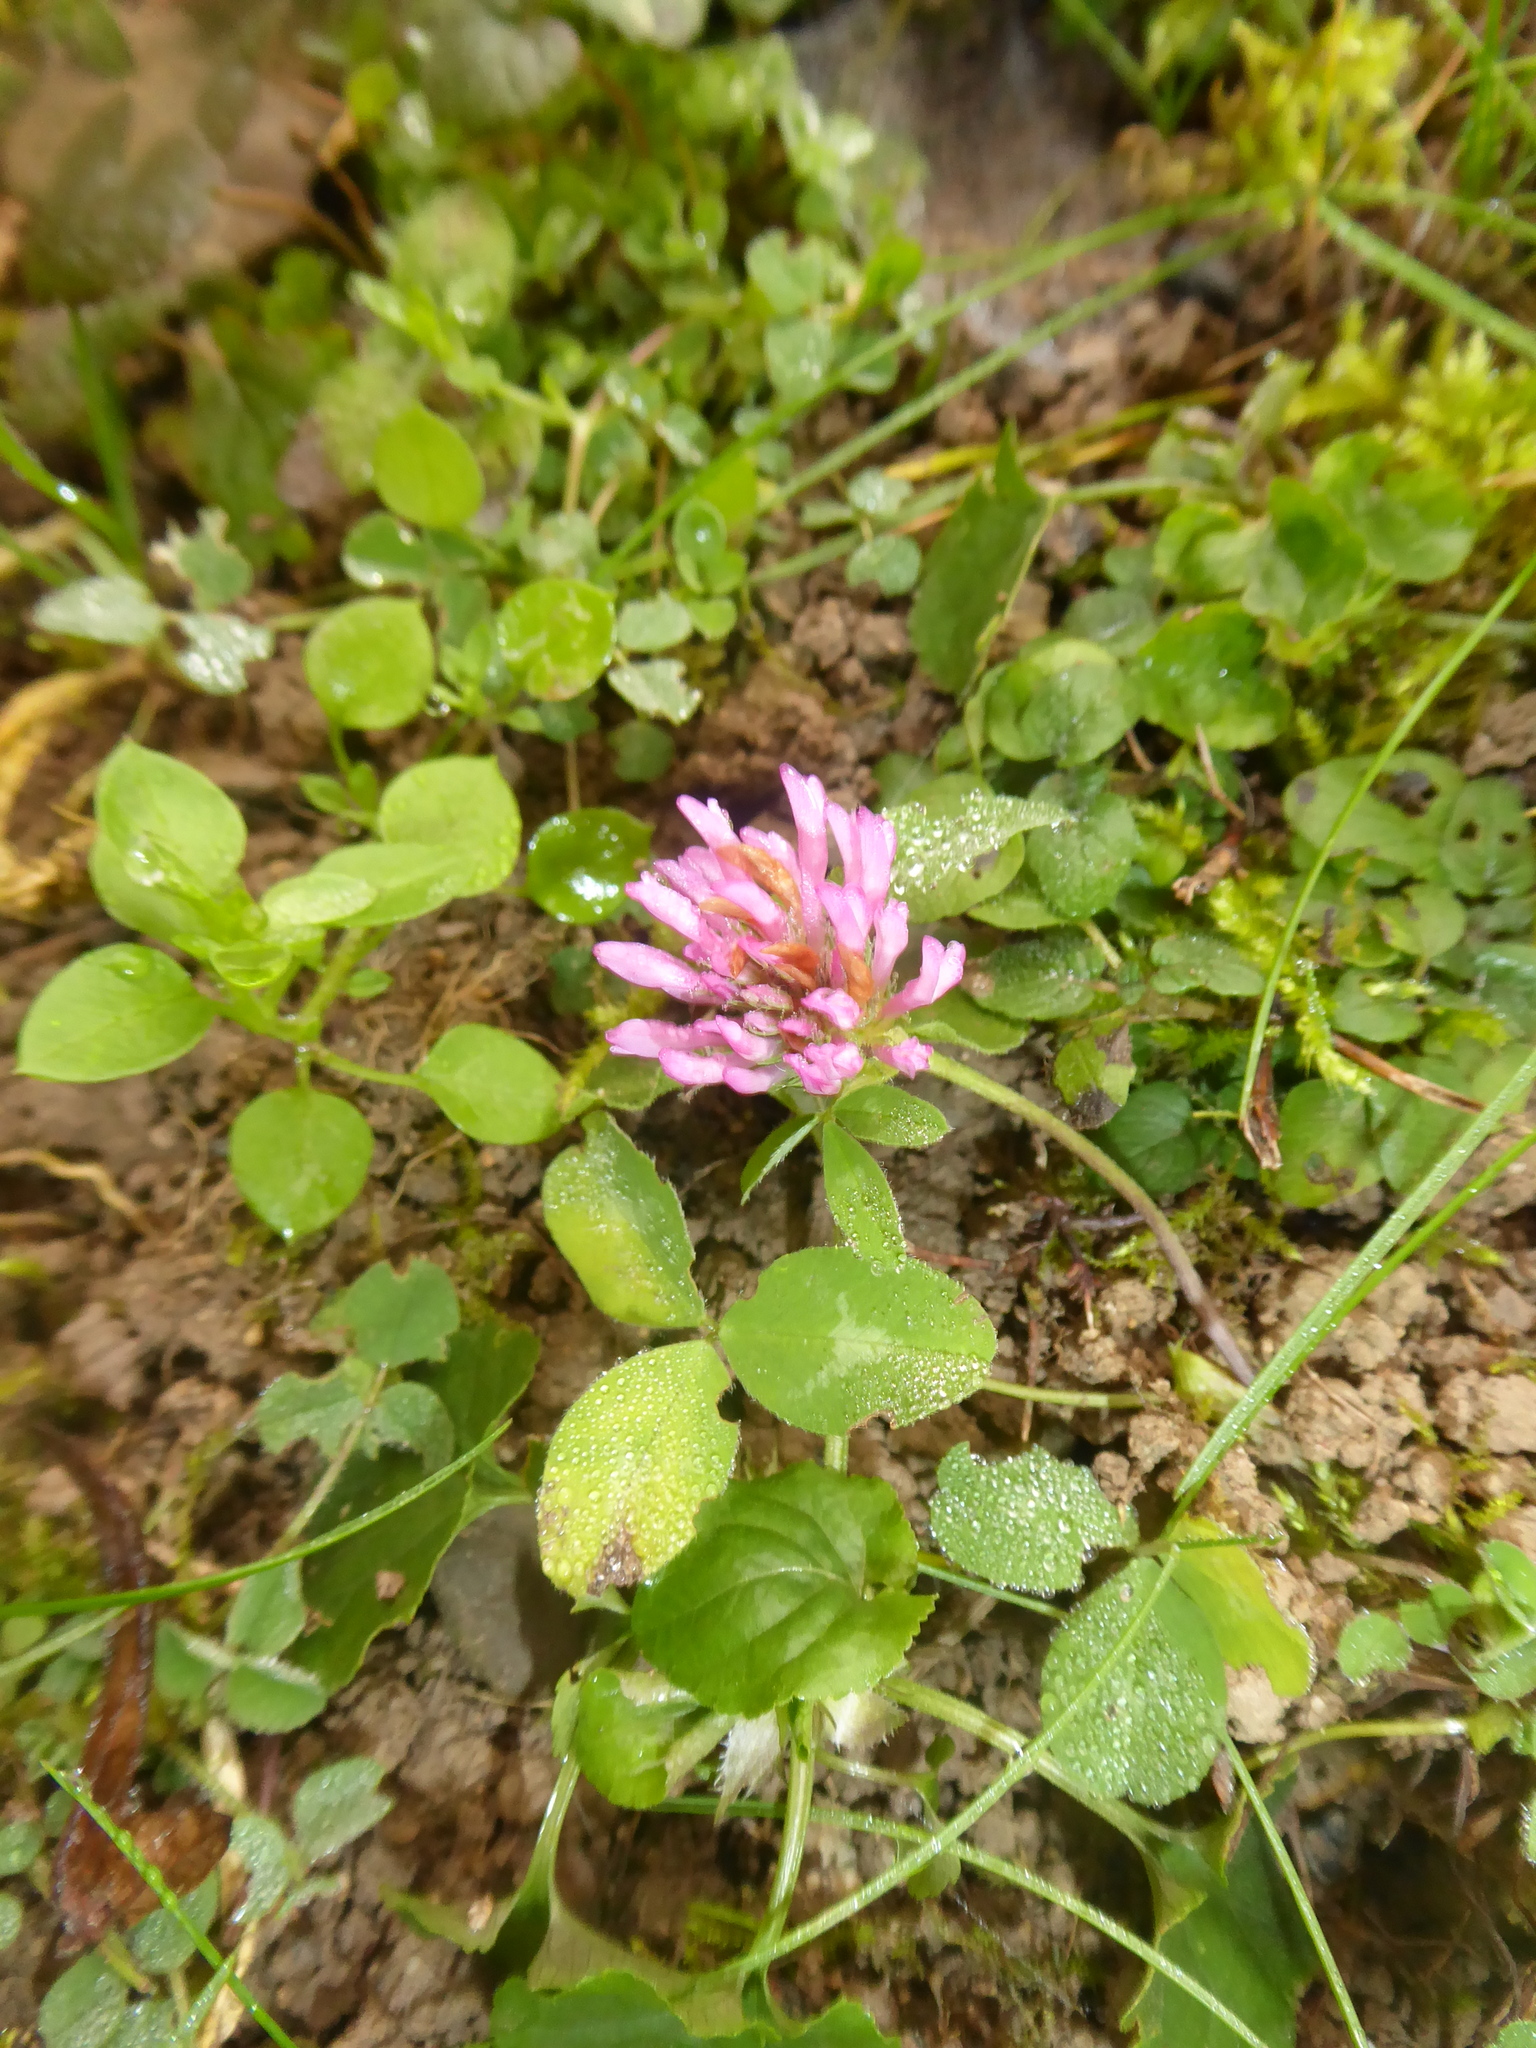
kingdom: Plantae
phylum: Tracheophyta
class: Magnoliopsida
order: Fabales
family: Fabaceae
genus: Trifolium
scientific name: Trifolium pratense
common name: Red clover
